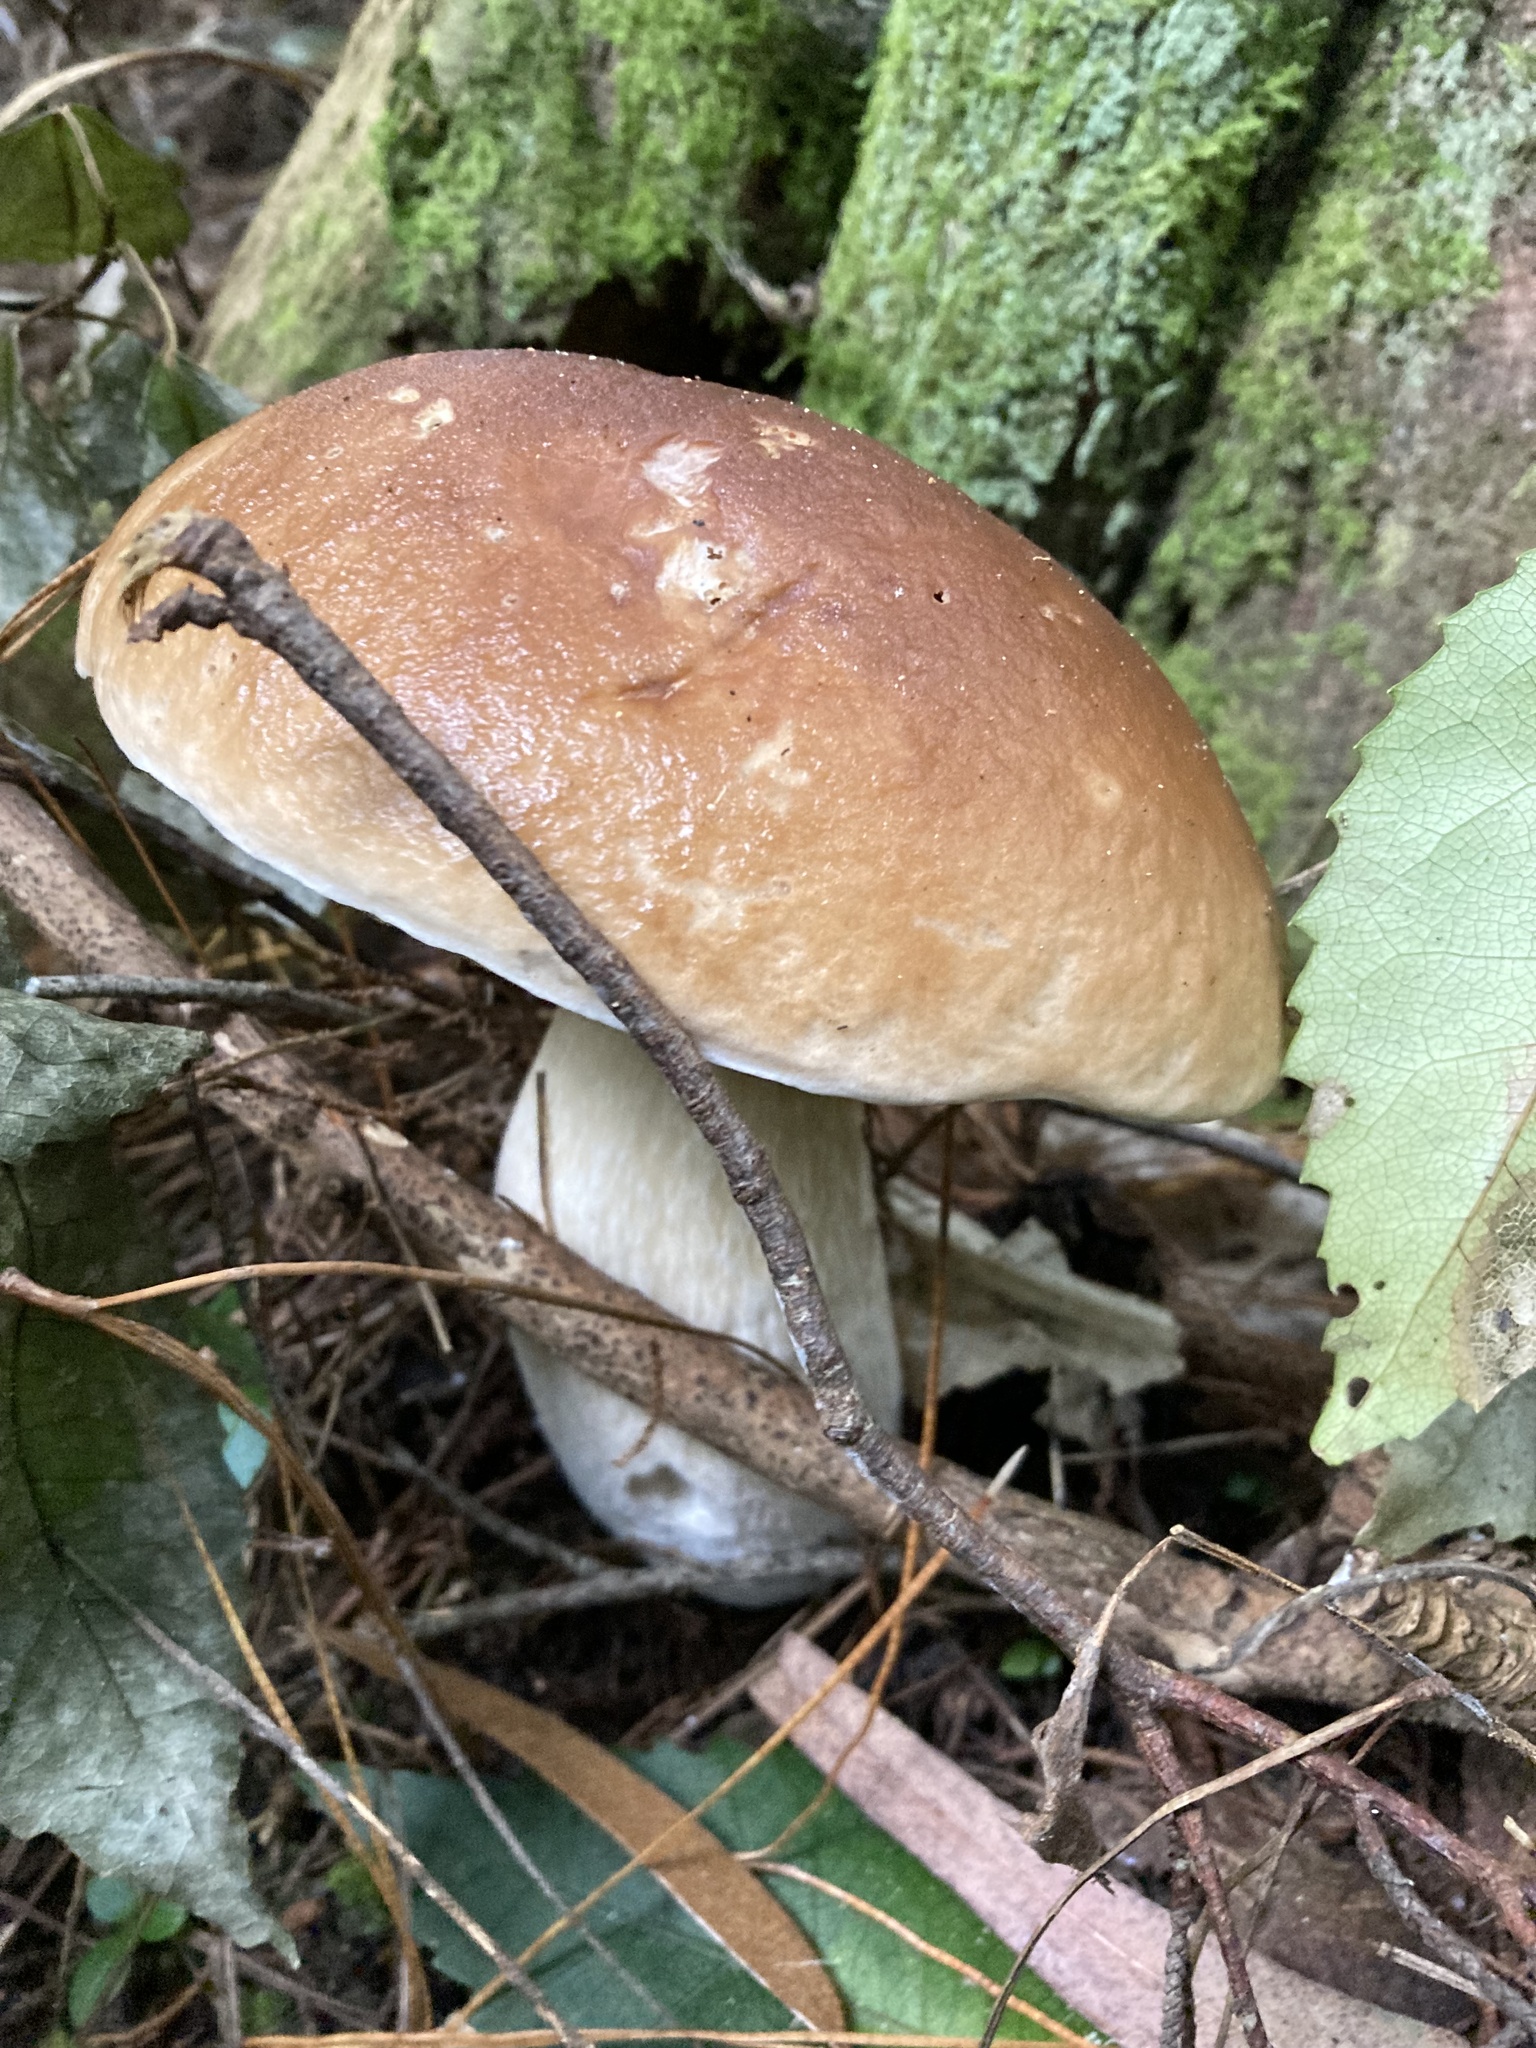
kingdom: Fungi
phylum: Basidiomycota
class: Agaricomycetes
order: Boletales
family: Boletaceae
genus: Boletus
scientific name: Boletus edulis
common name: Cep
